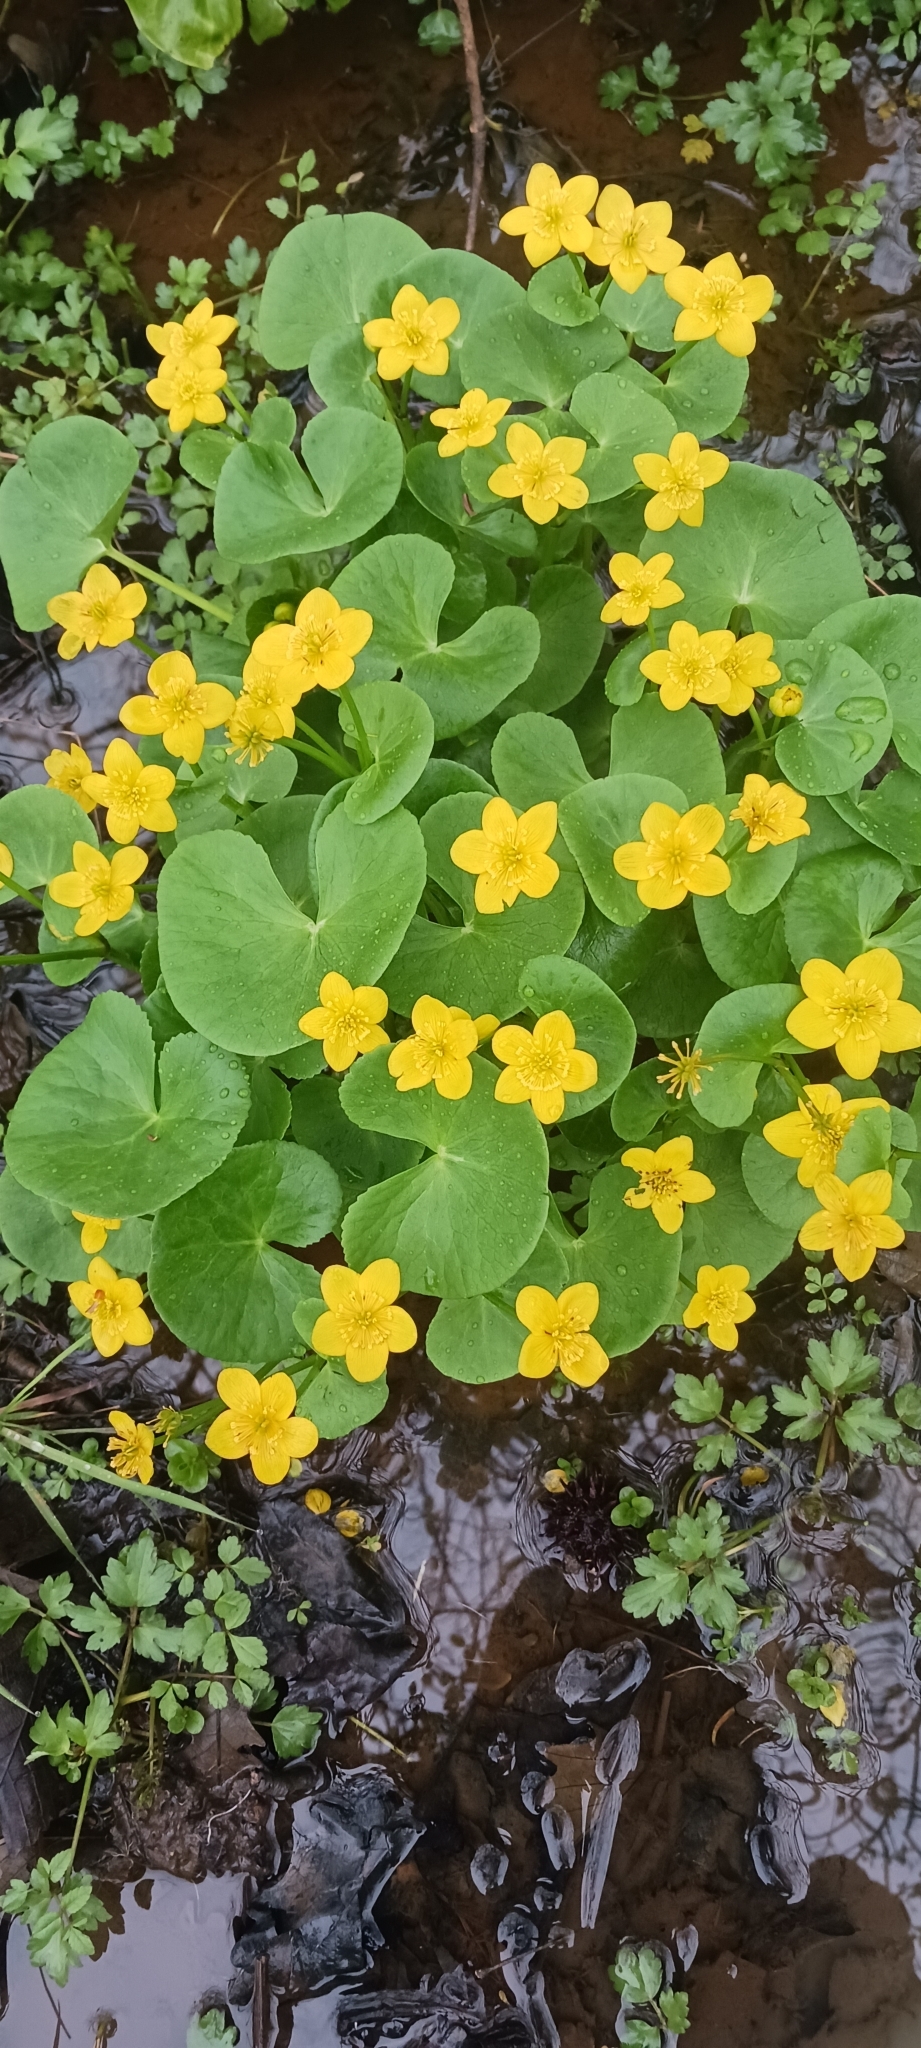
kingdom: Plantae
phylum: Tracheophyta
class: Magnoliopsida
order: Ranunculales
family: Ranunculaceae
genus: Caltha
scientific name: Caltha palustris
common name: Marsh marigold
